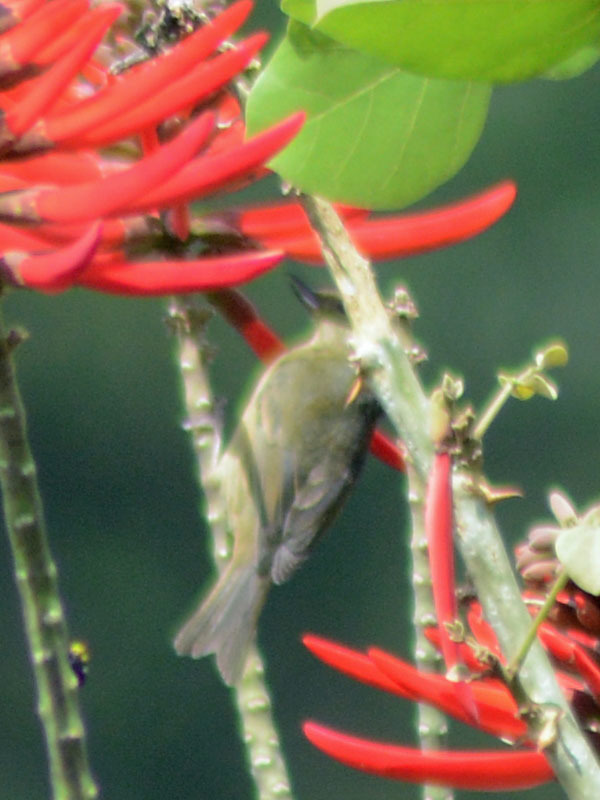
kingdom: Animalia
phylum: Chordata
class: Aves
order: Passeriformes
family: Thraupidae
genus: Diglossa
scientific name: Diglossa baritula
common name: Cinnamon-bellied flowerpiercer
